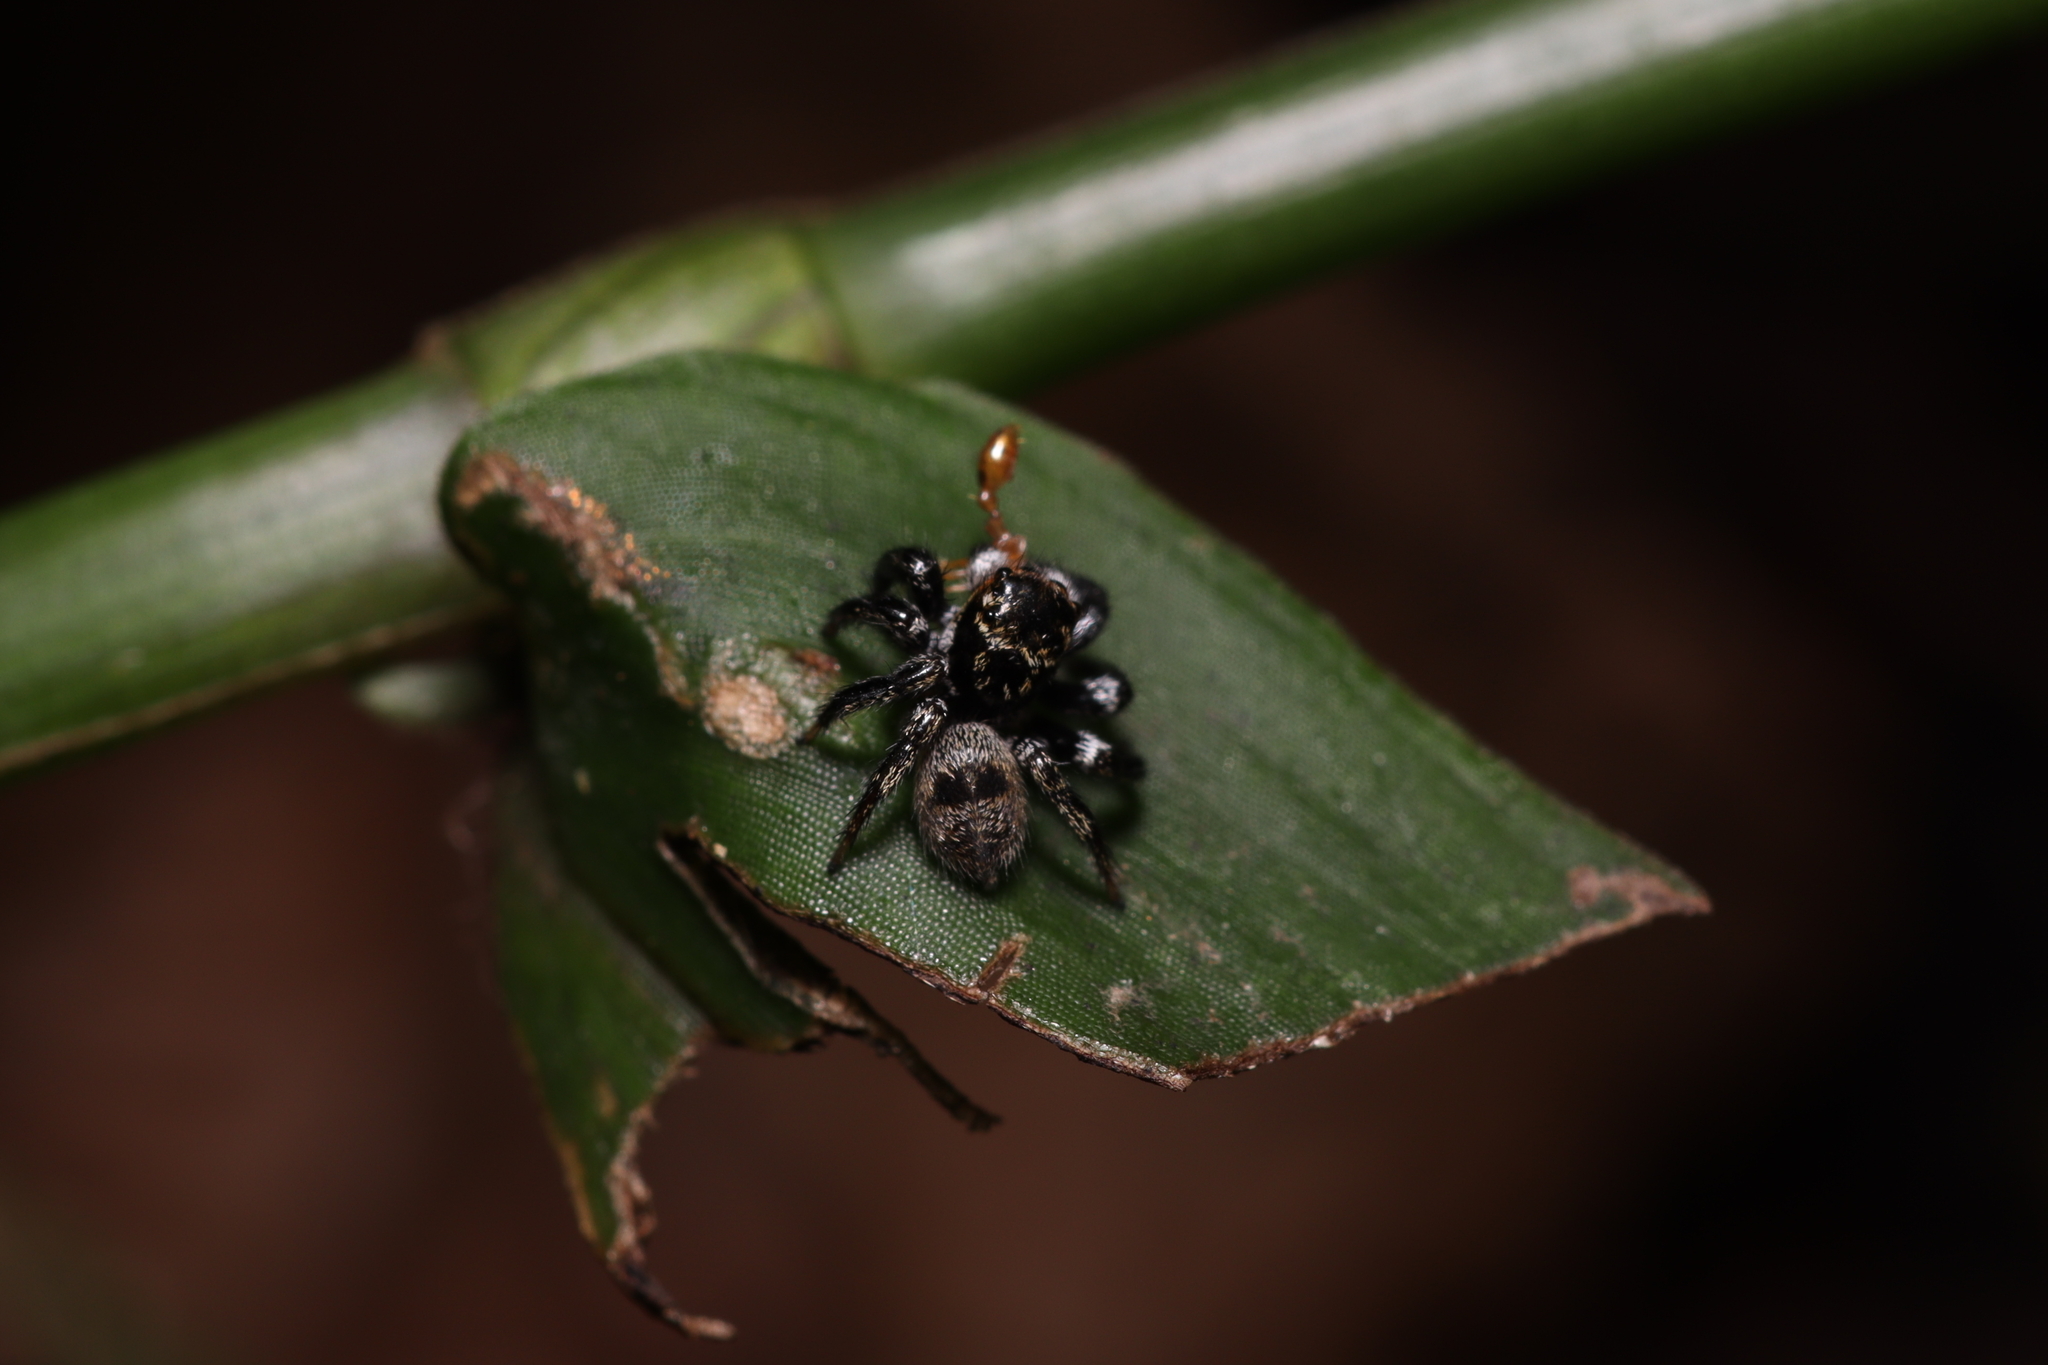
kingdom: Animalia
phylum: Arthropoda
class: Arachnida
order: Araneae
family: Salticidae
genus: Corythalia
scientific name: Corythalia conferta
